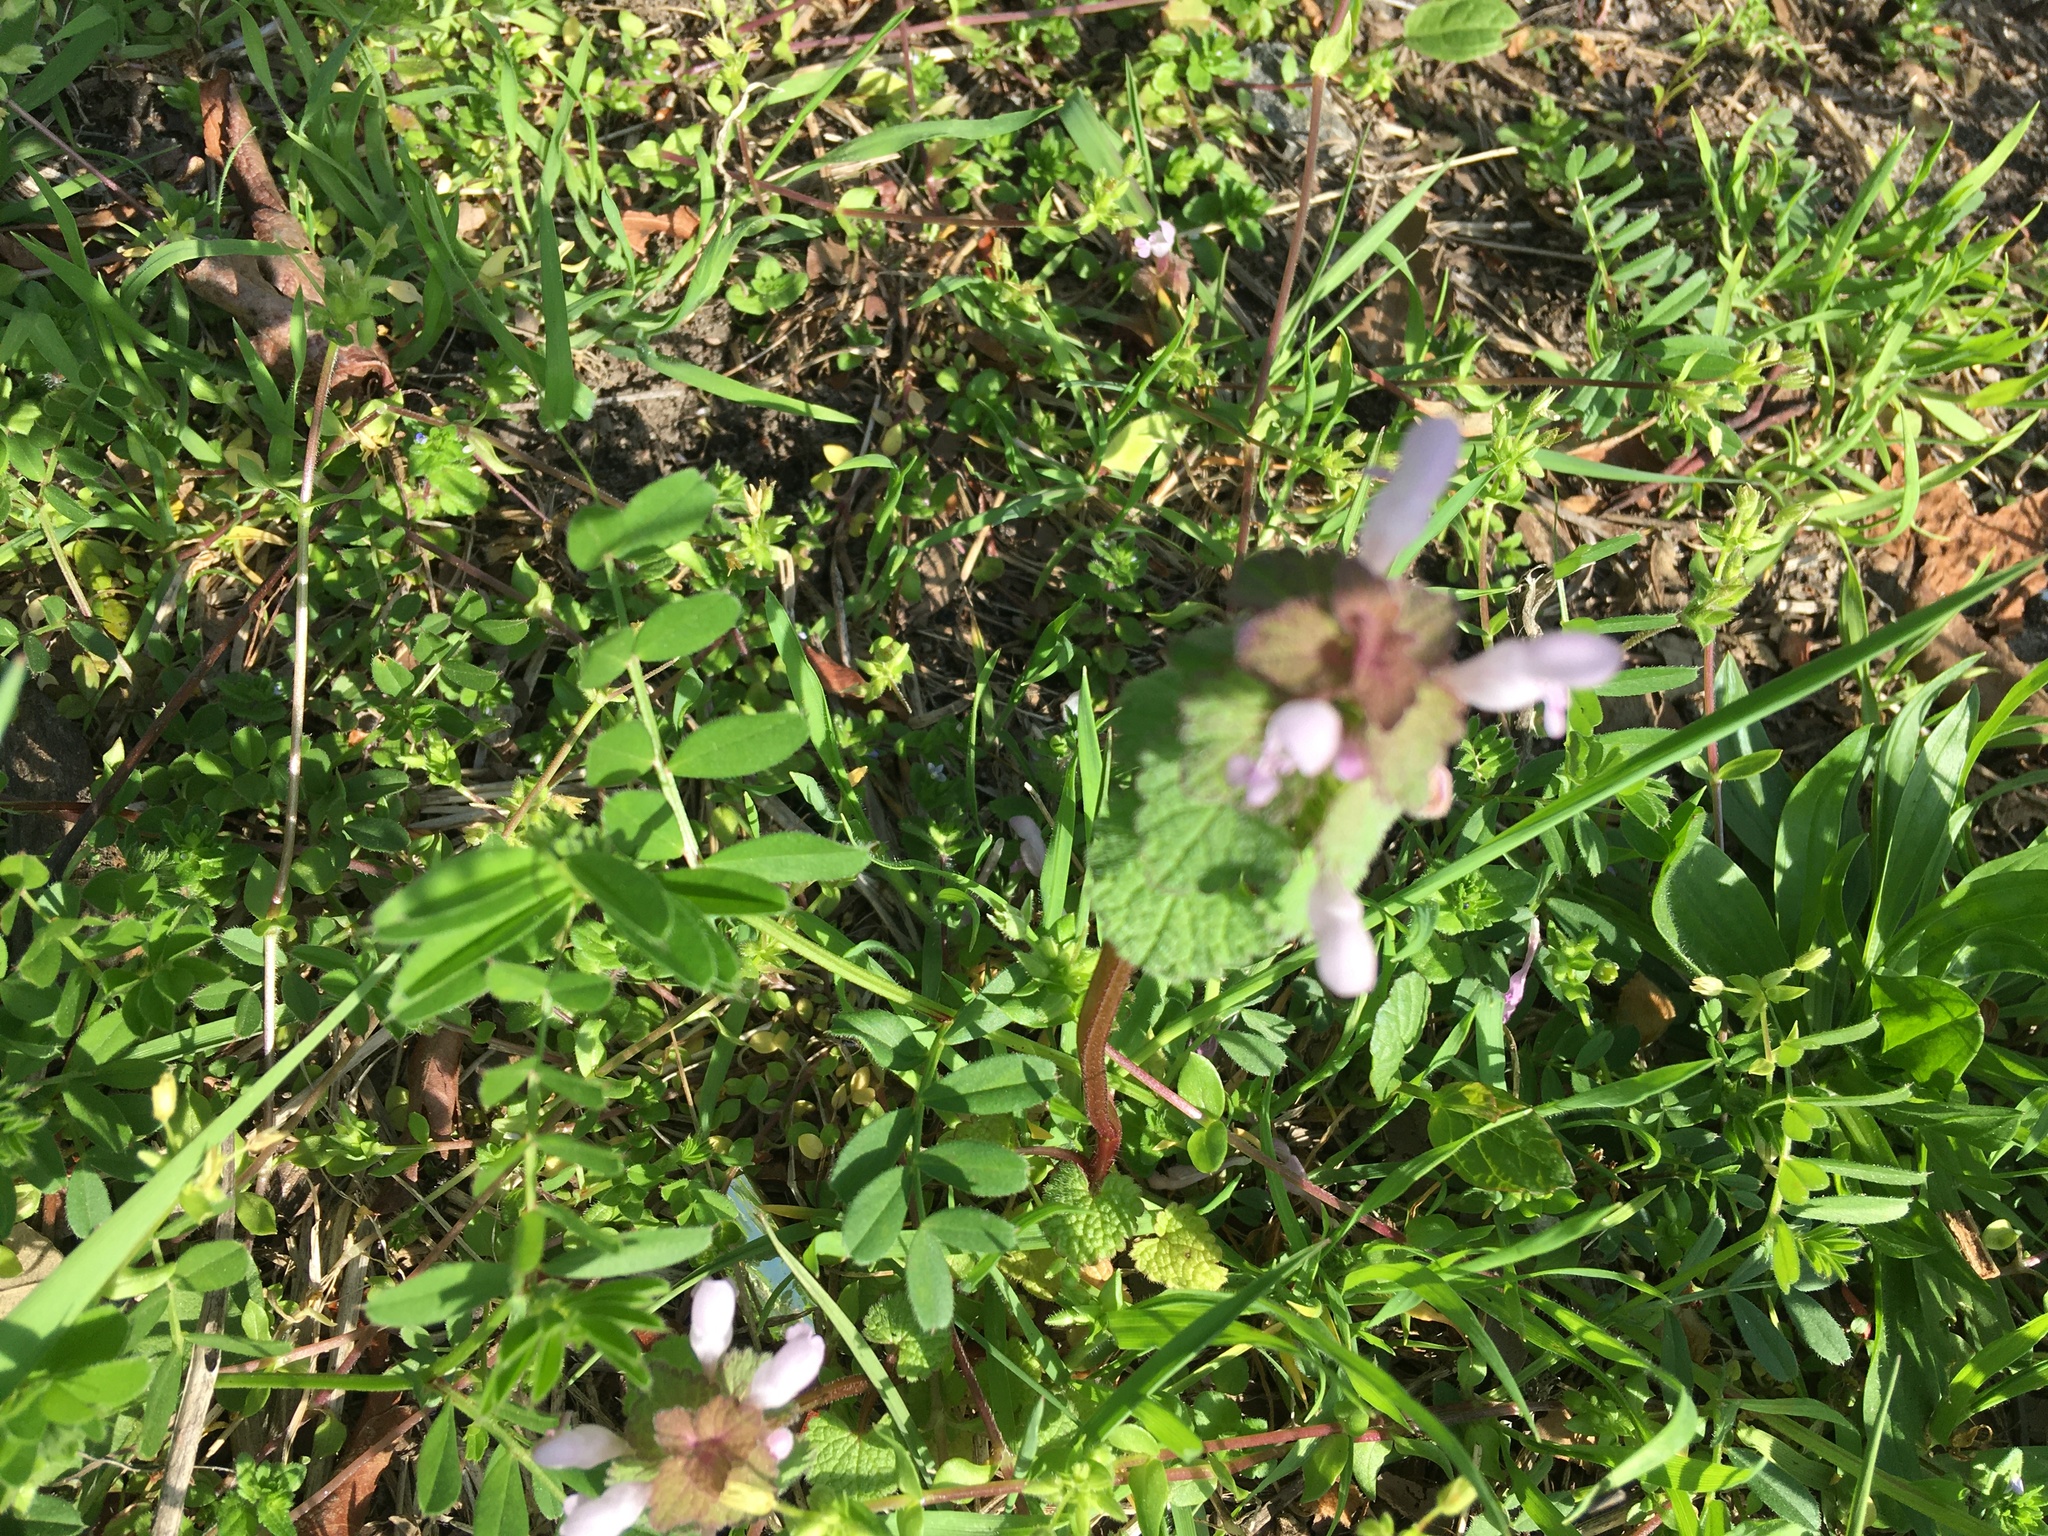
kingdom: Plantae
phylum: Tracheophyta
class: Magnoliopsida
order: Lamiales
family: Lamiaceae
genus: Lamium
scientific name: Lamium purpureum
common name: Red dead-nettle
